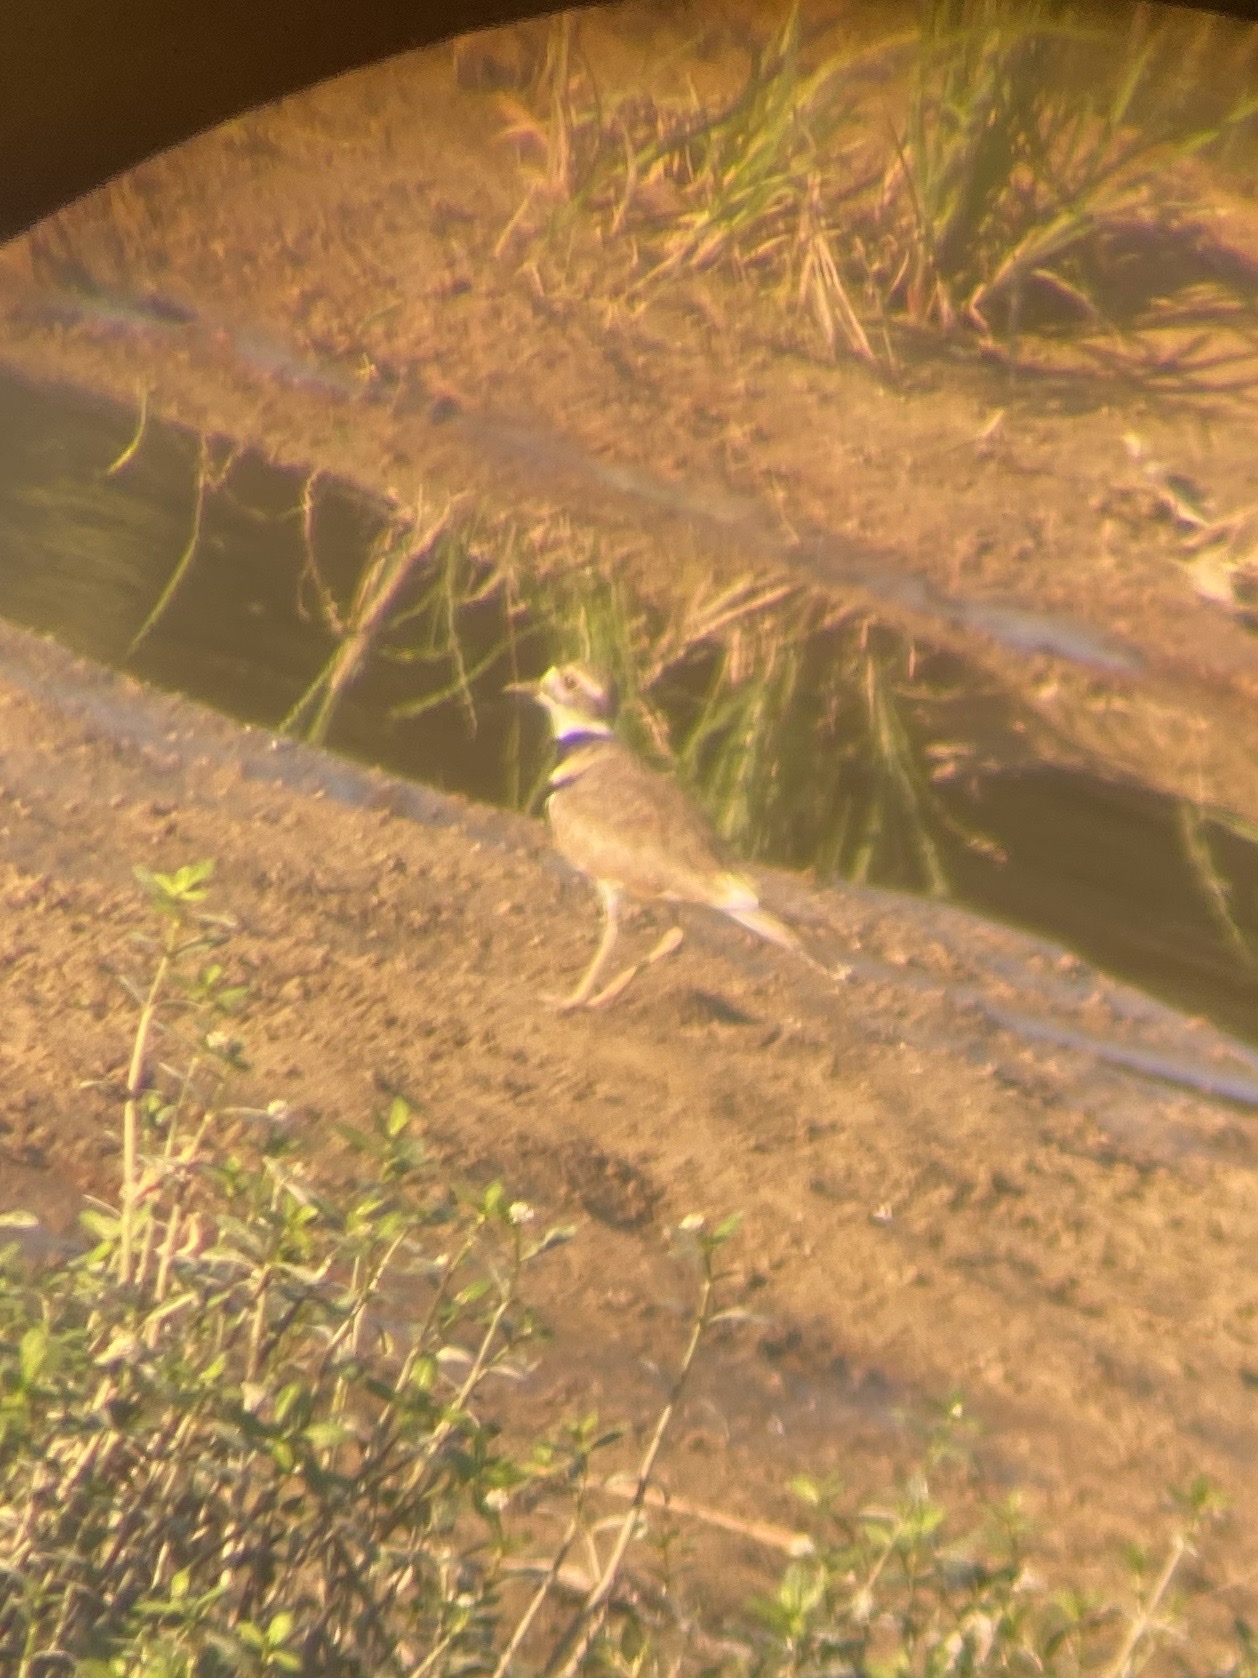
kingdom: Animalia
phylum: Chordata
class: Aves
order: Charadriiformes
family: Charadriidae
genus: Charadrius
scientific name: Charadrius vociferus
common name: Killdeer
